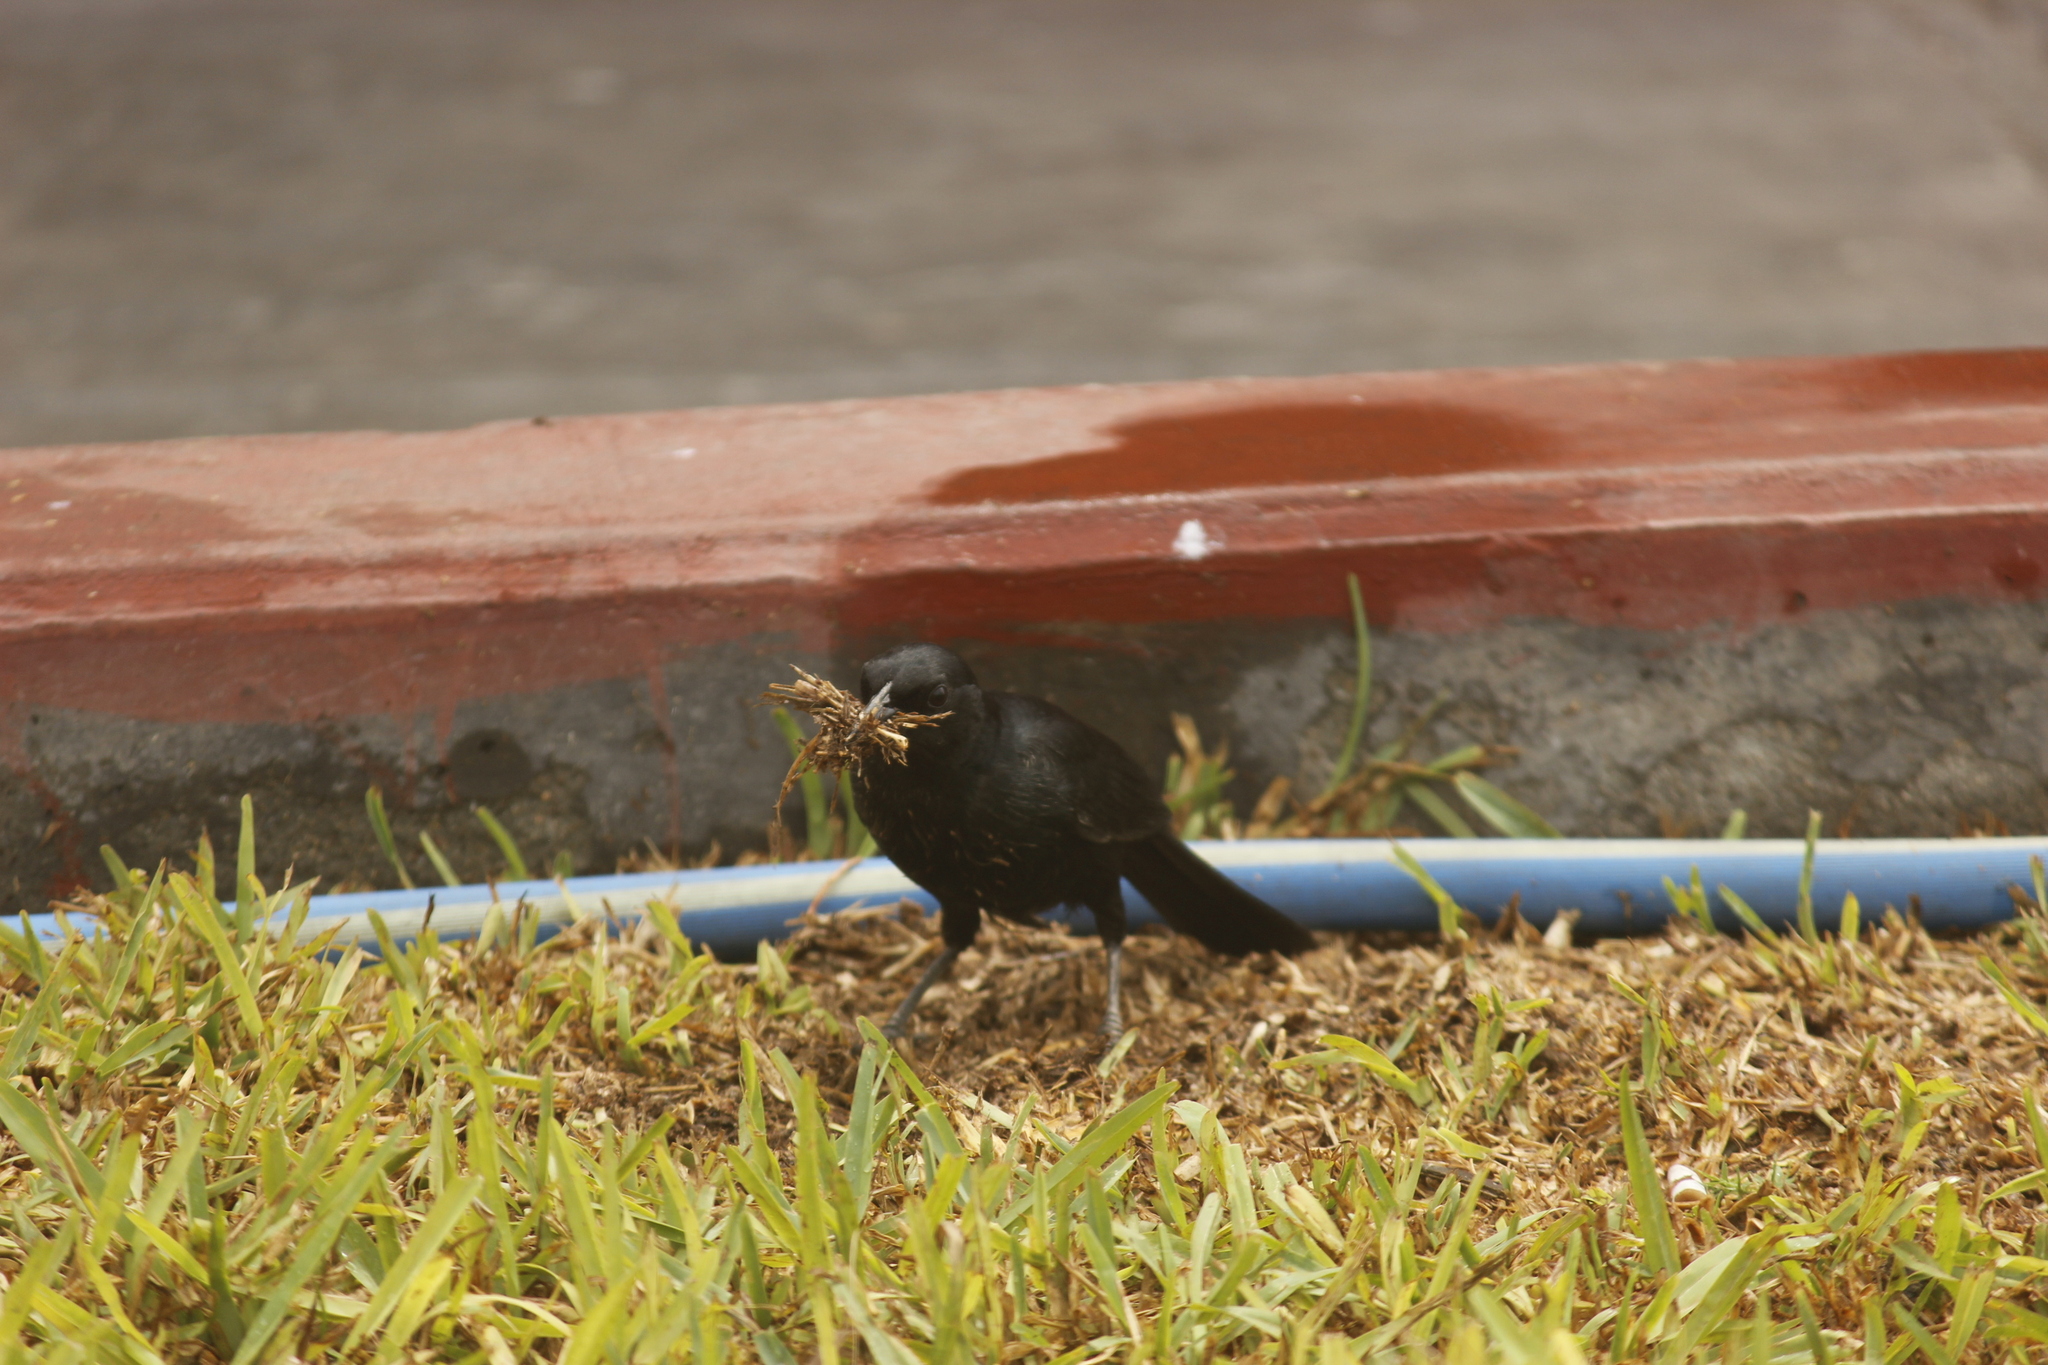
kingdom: Animalia
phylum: Chordata
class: Aves
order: Passeriformes
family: Icteridae
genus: Dives
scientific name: Dives warczewiczi
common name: Scrub blackbird
